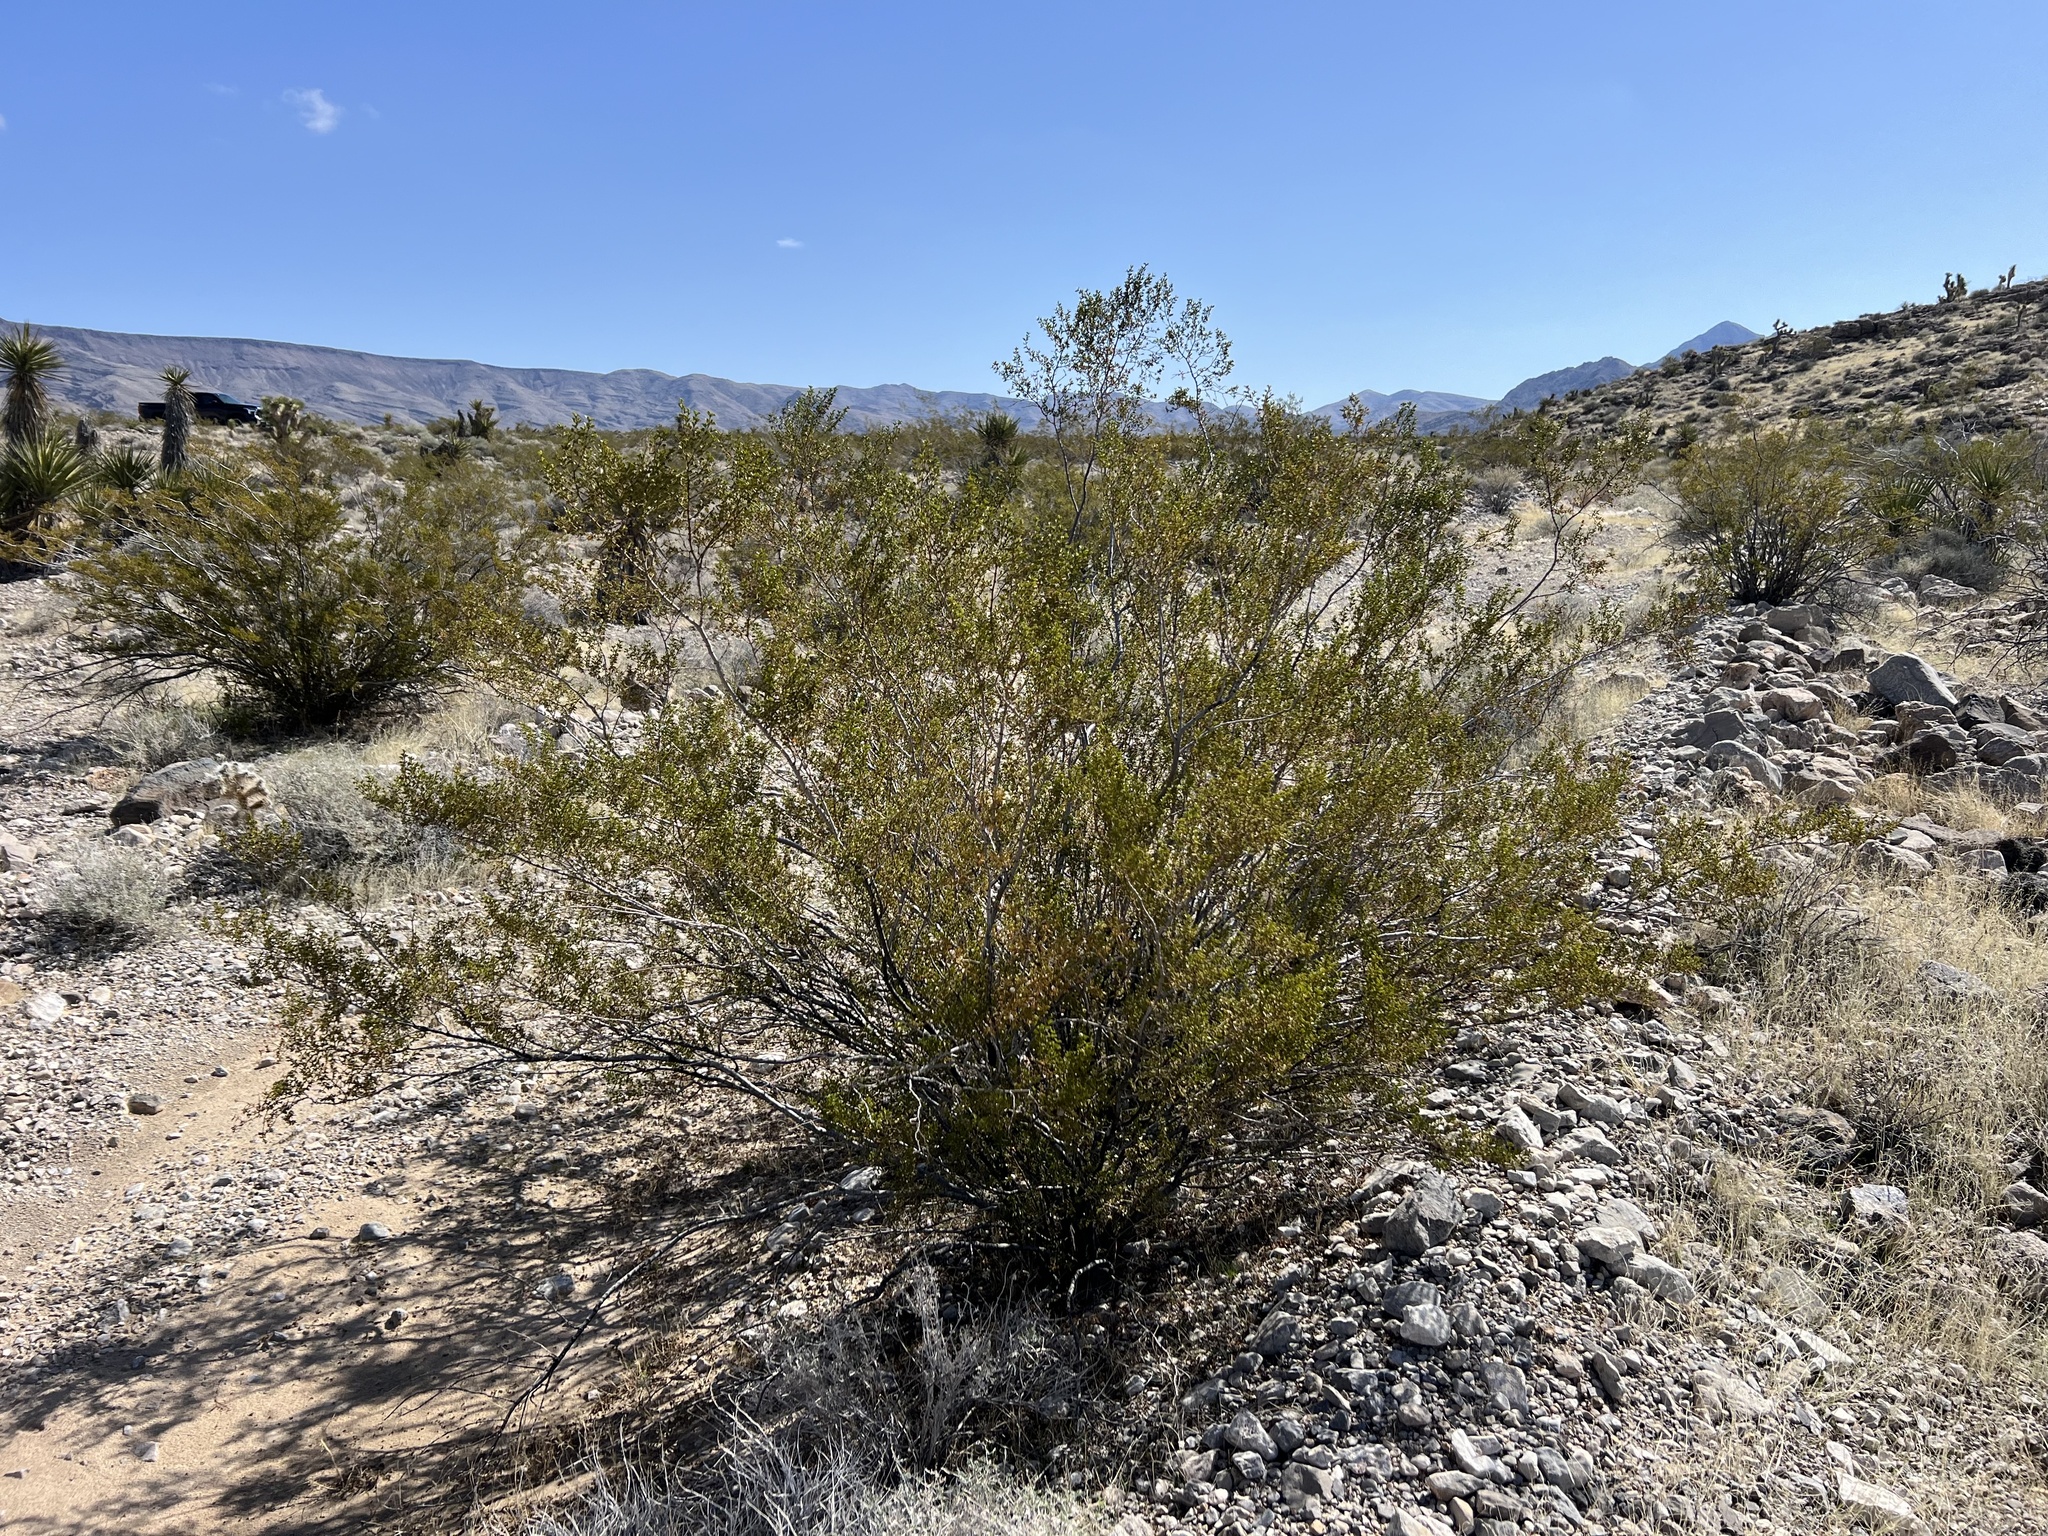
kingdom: Plantae
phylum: Tracheophyta
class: Magnoliopsida
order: Zygophyllales
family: Zygophyllaceae
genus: Larrea
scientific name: Larrea tridentata
